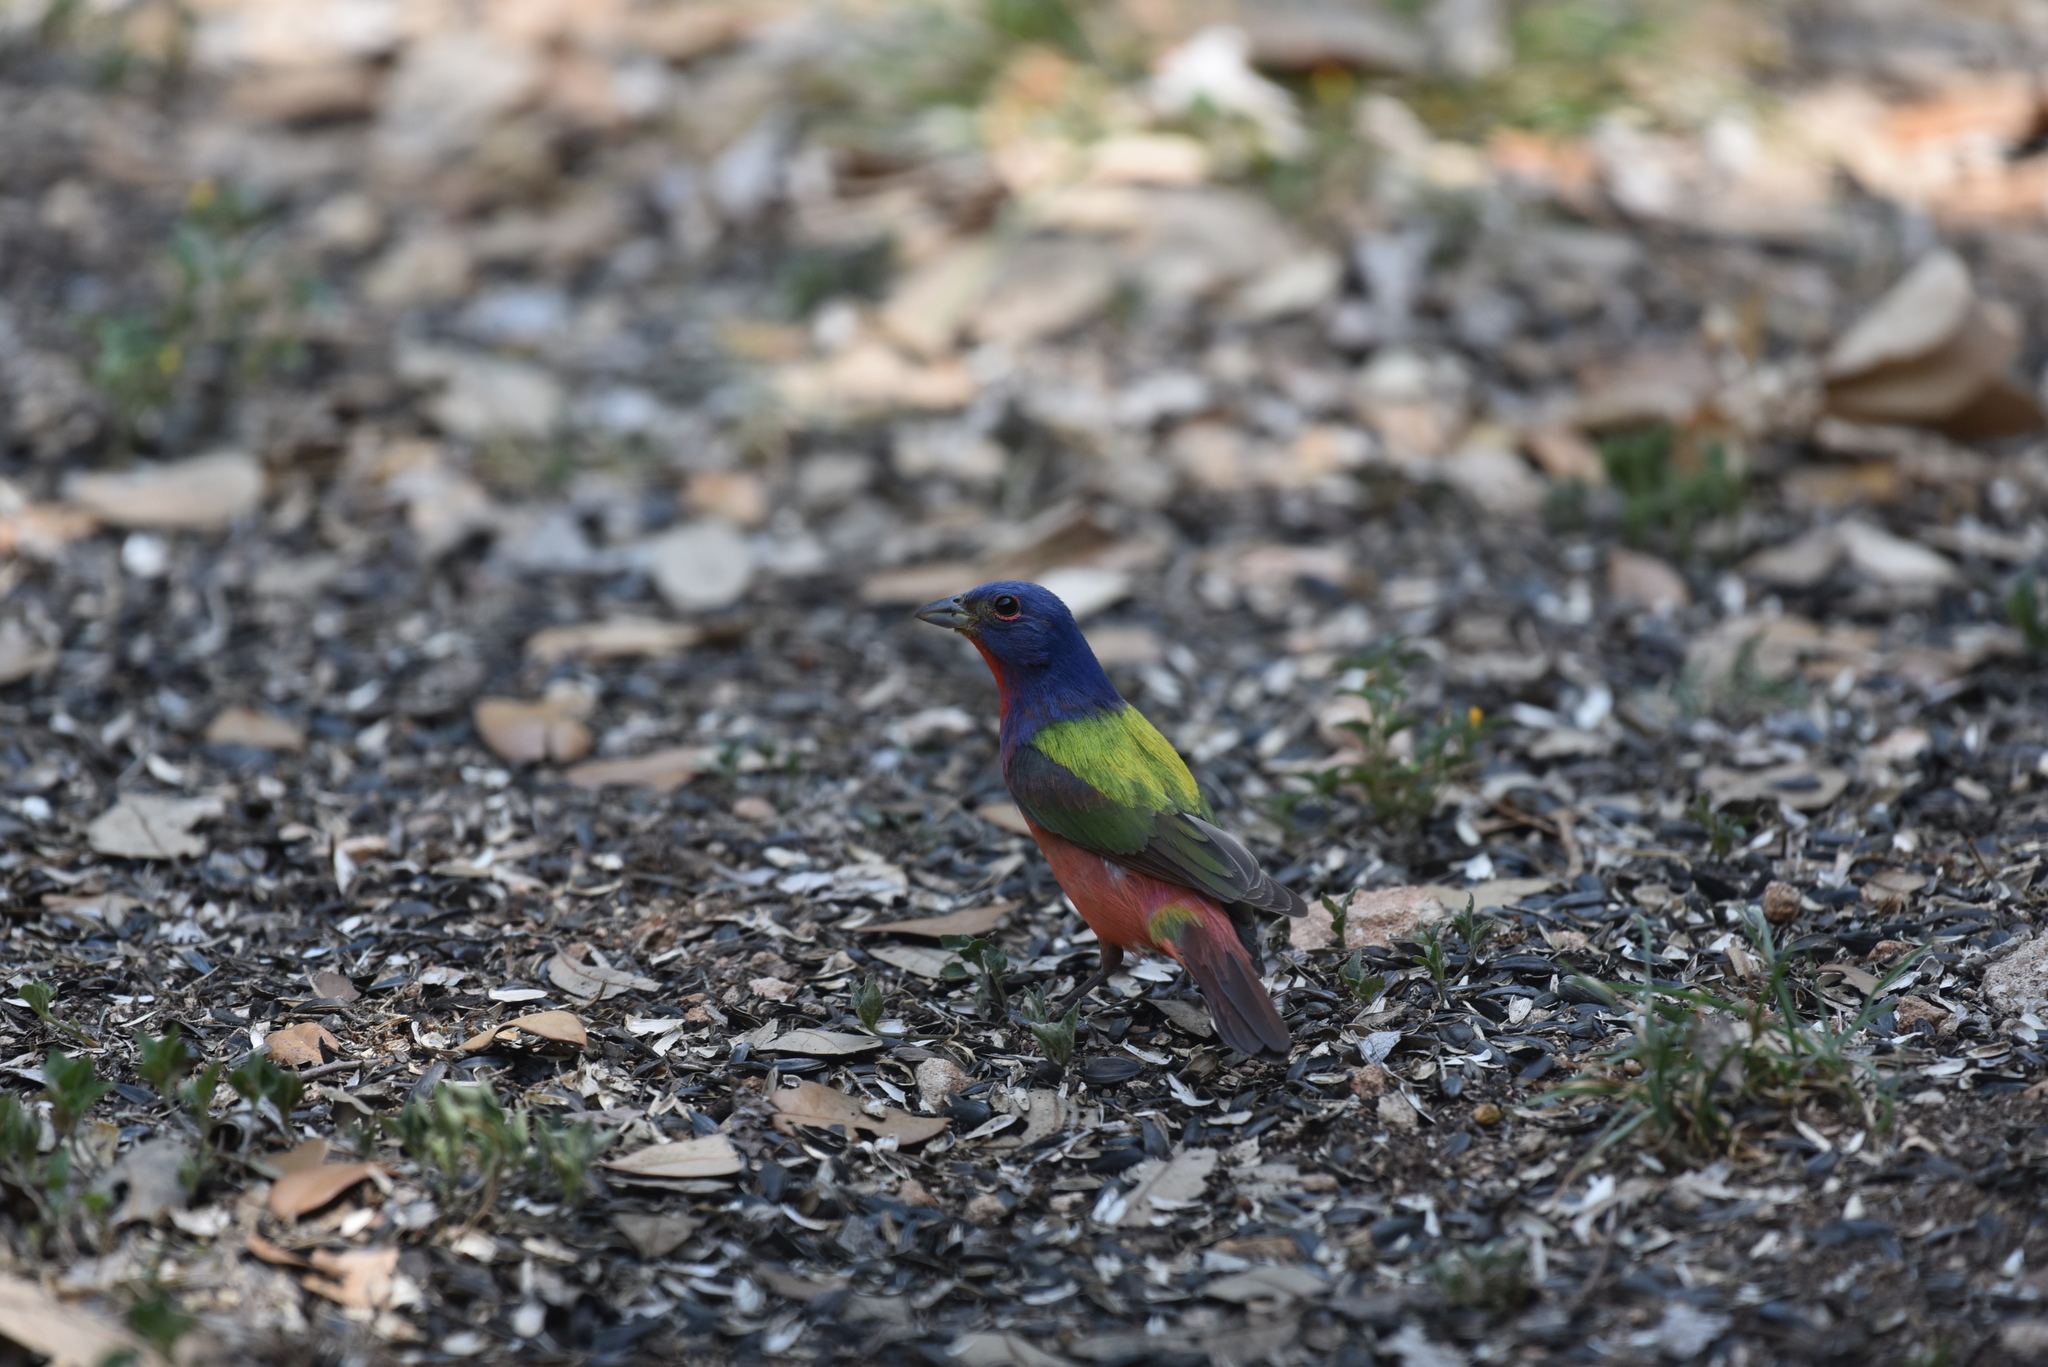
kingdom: Animalia
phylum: Chordata
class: Aves
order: Passeriformes
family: Cardinalidae
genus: Passerina
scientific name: Passerina ciris
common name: Painted bunting
